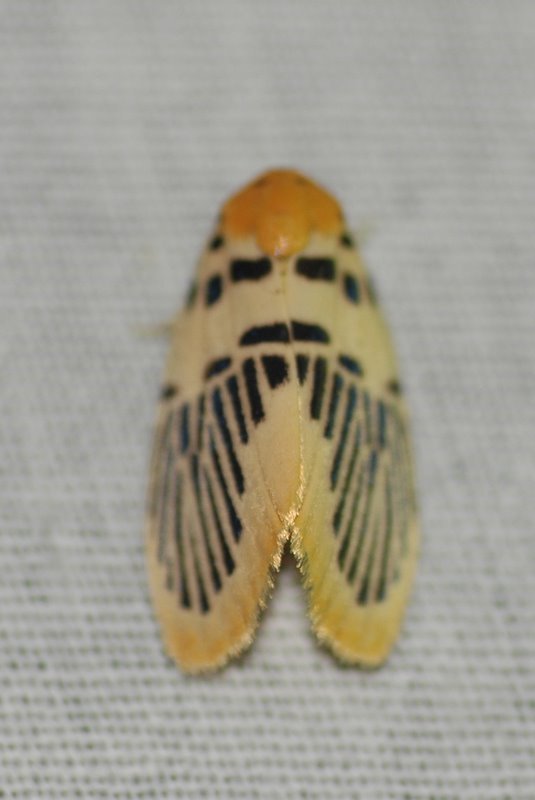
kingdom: Animalia
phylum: Arthropoda
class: Insecta
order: Lepidoptera
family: Erebidae
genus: Stigmatophora
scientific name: Stigmatophora palmata
